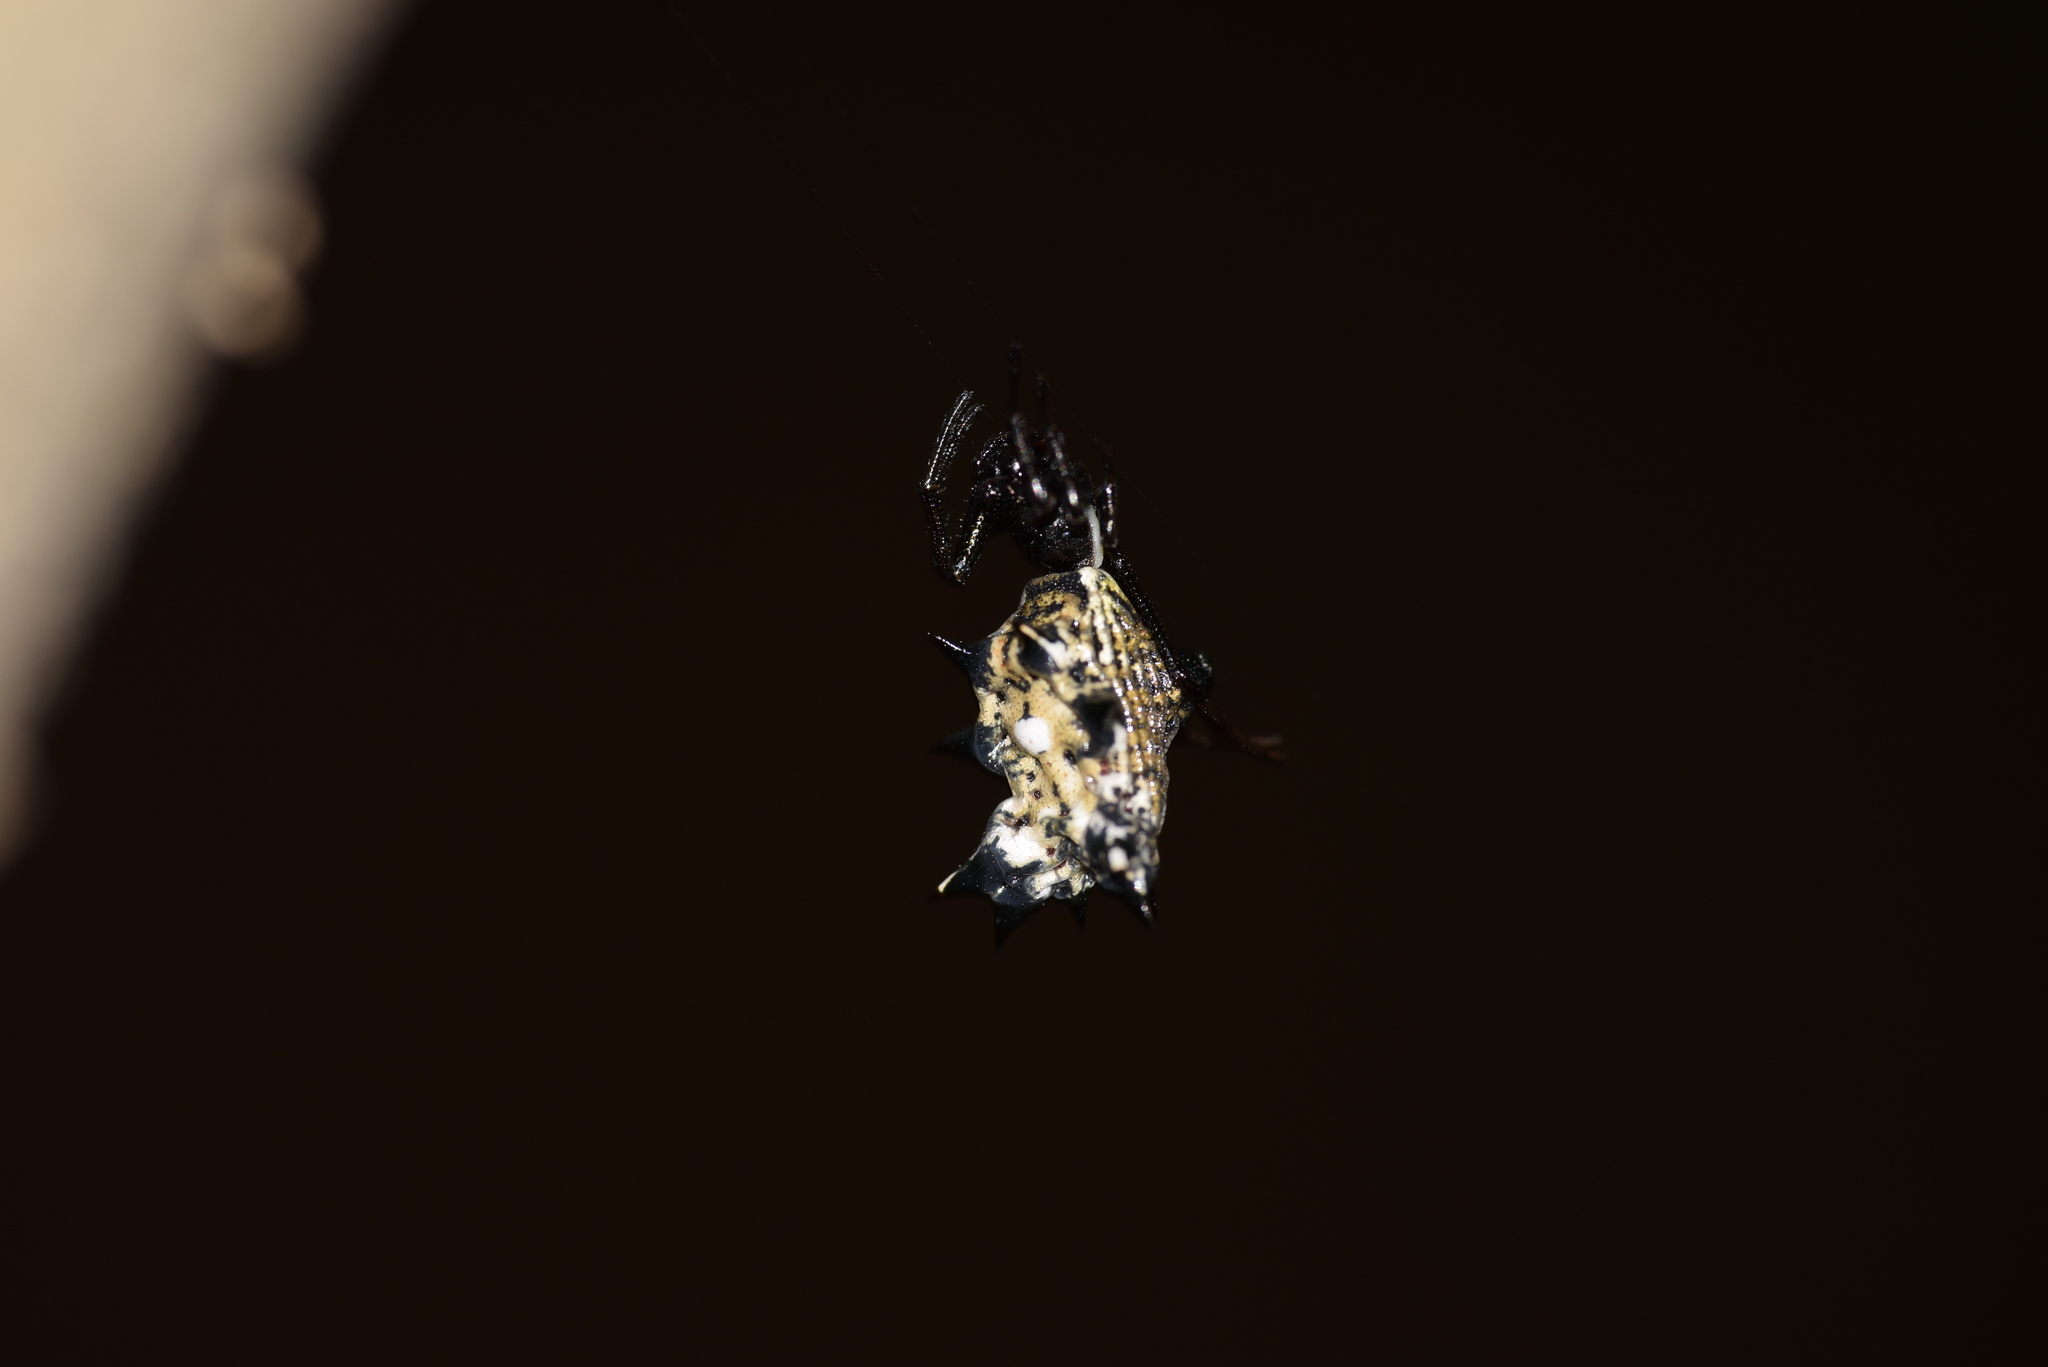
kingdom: Animalia
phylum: Arthropoda
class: Arachnida
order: Araneae
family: Araneidae
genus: Micrathena
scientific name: Micrathena gracilis
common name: Orb weavers
